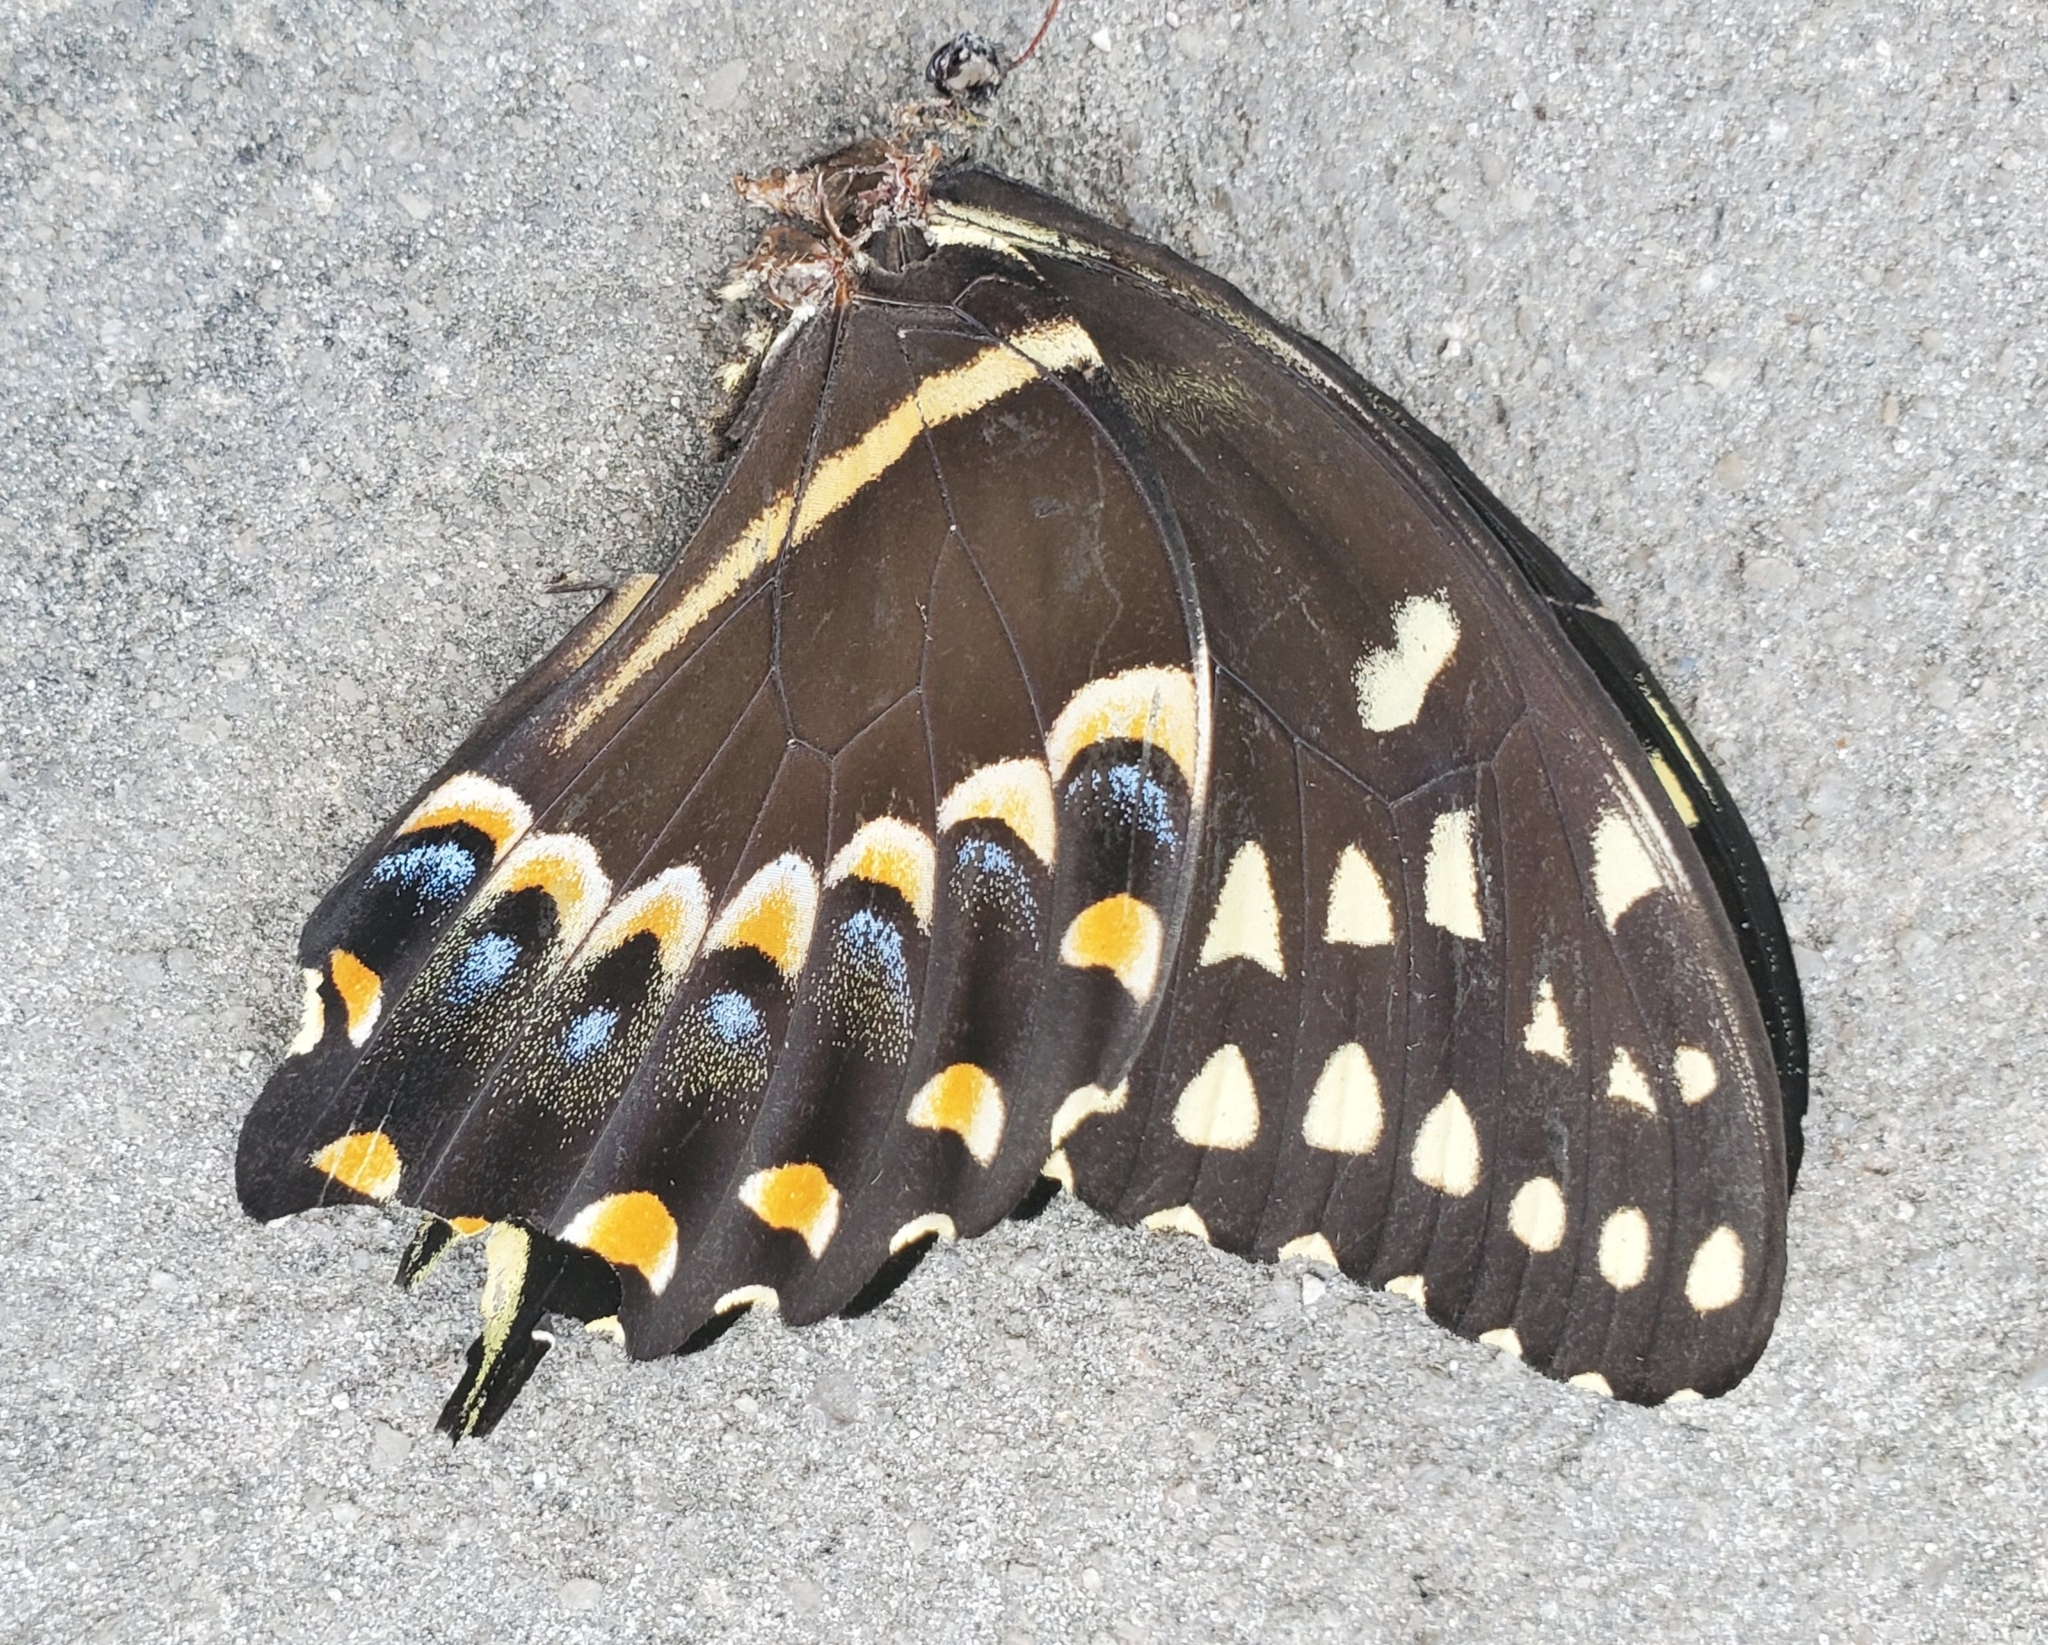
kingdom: Animalia
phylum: Arthropoda
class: Insecta
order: Lepidoptera
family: Papilionidae
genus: Papilio
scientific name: Papilio palamedes
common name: Palamedes swallowtail
